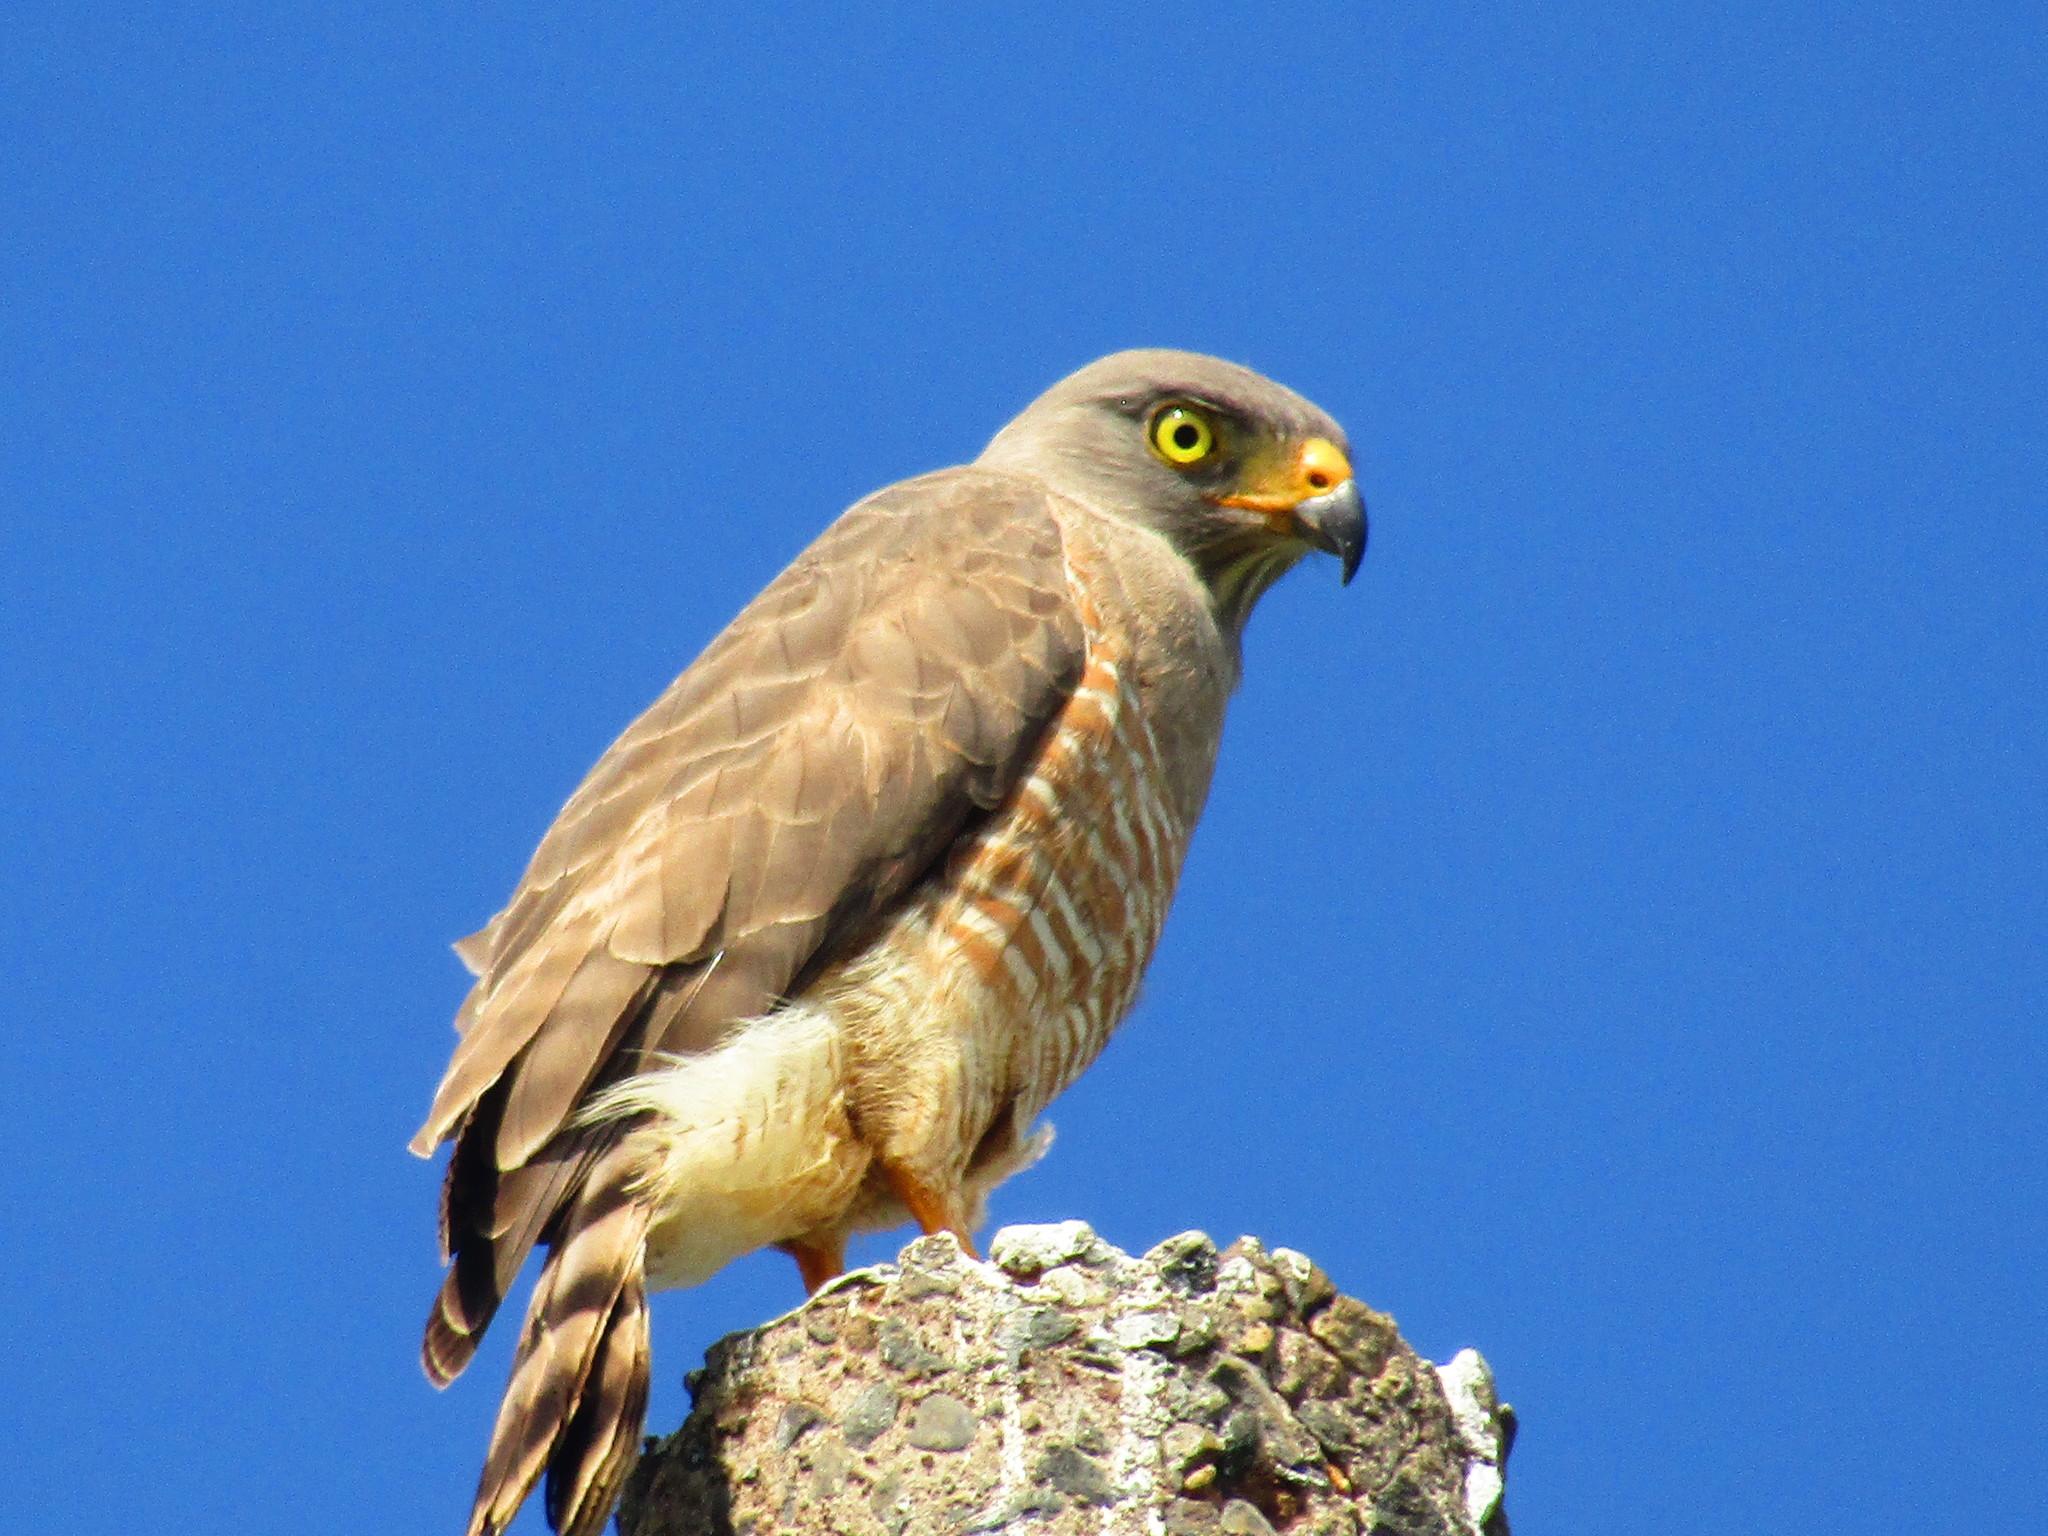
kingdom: Animalia
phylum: Chordata
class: Aves
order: Accipitriformes
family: Accipitridae
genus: Rupornis
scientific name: Rupornis magnirostris
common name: Roadside hawk
